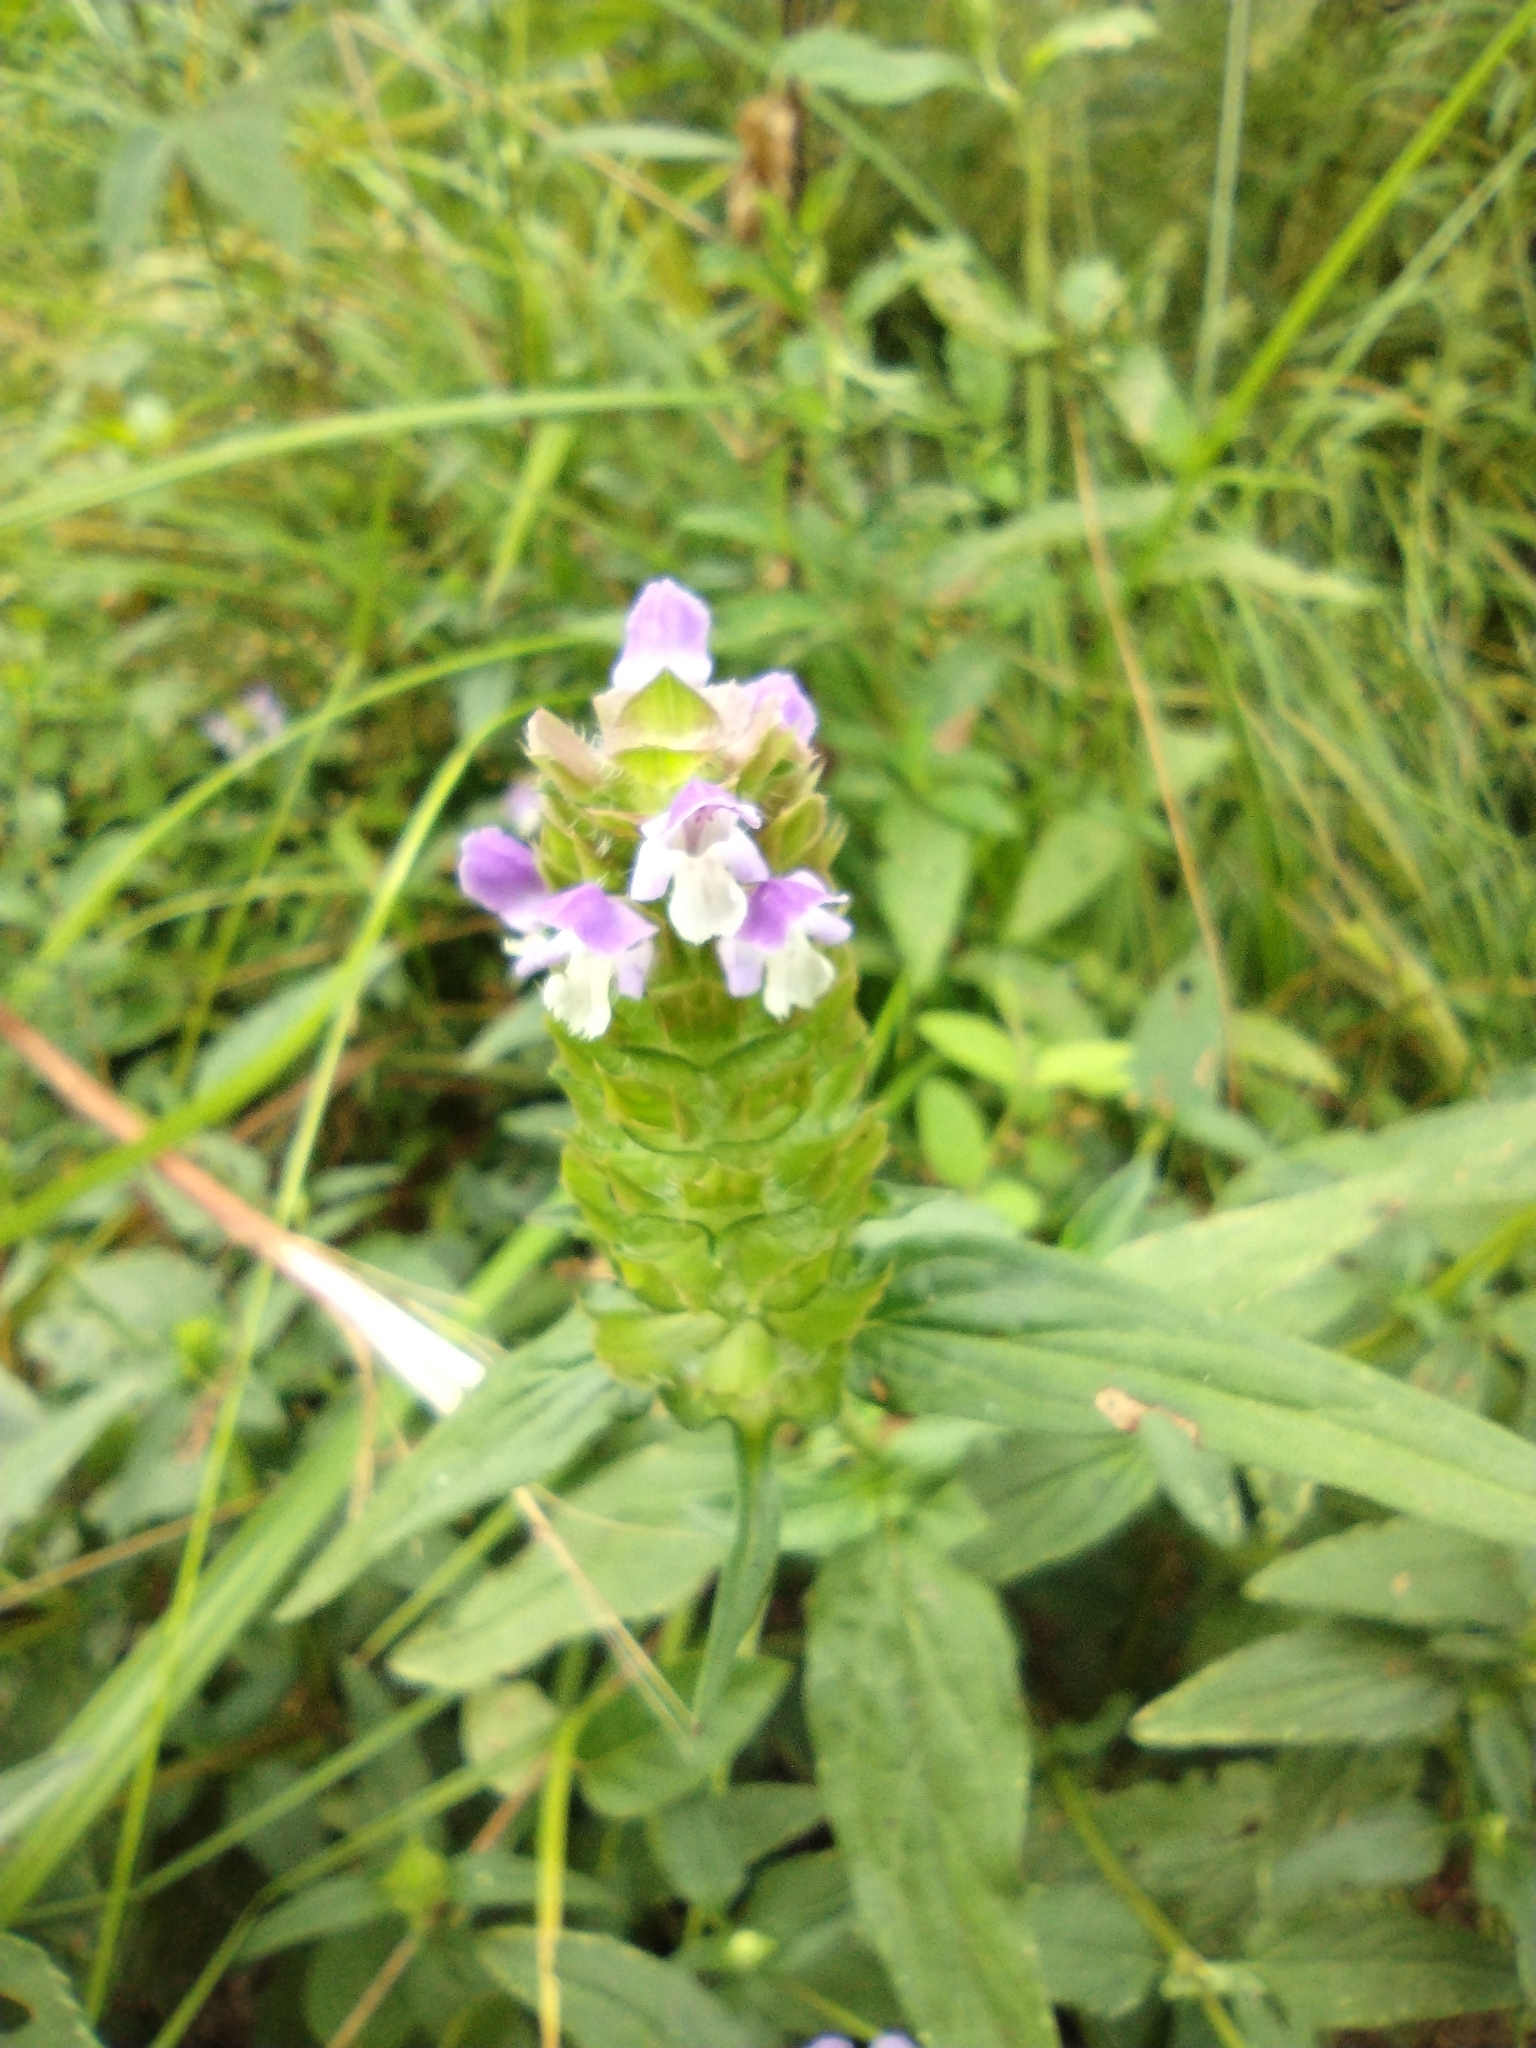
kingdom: Plantae
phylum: Tracheophyta
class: Magnoliopsida
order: Lamiales
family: Lamiaceae
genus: Prunella
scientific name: Prunella vulgaris
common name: Heal-all
